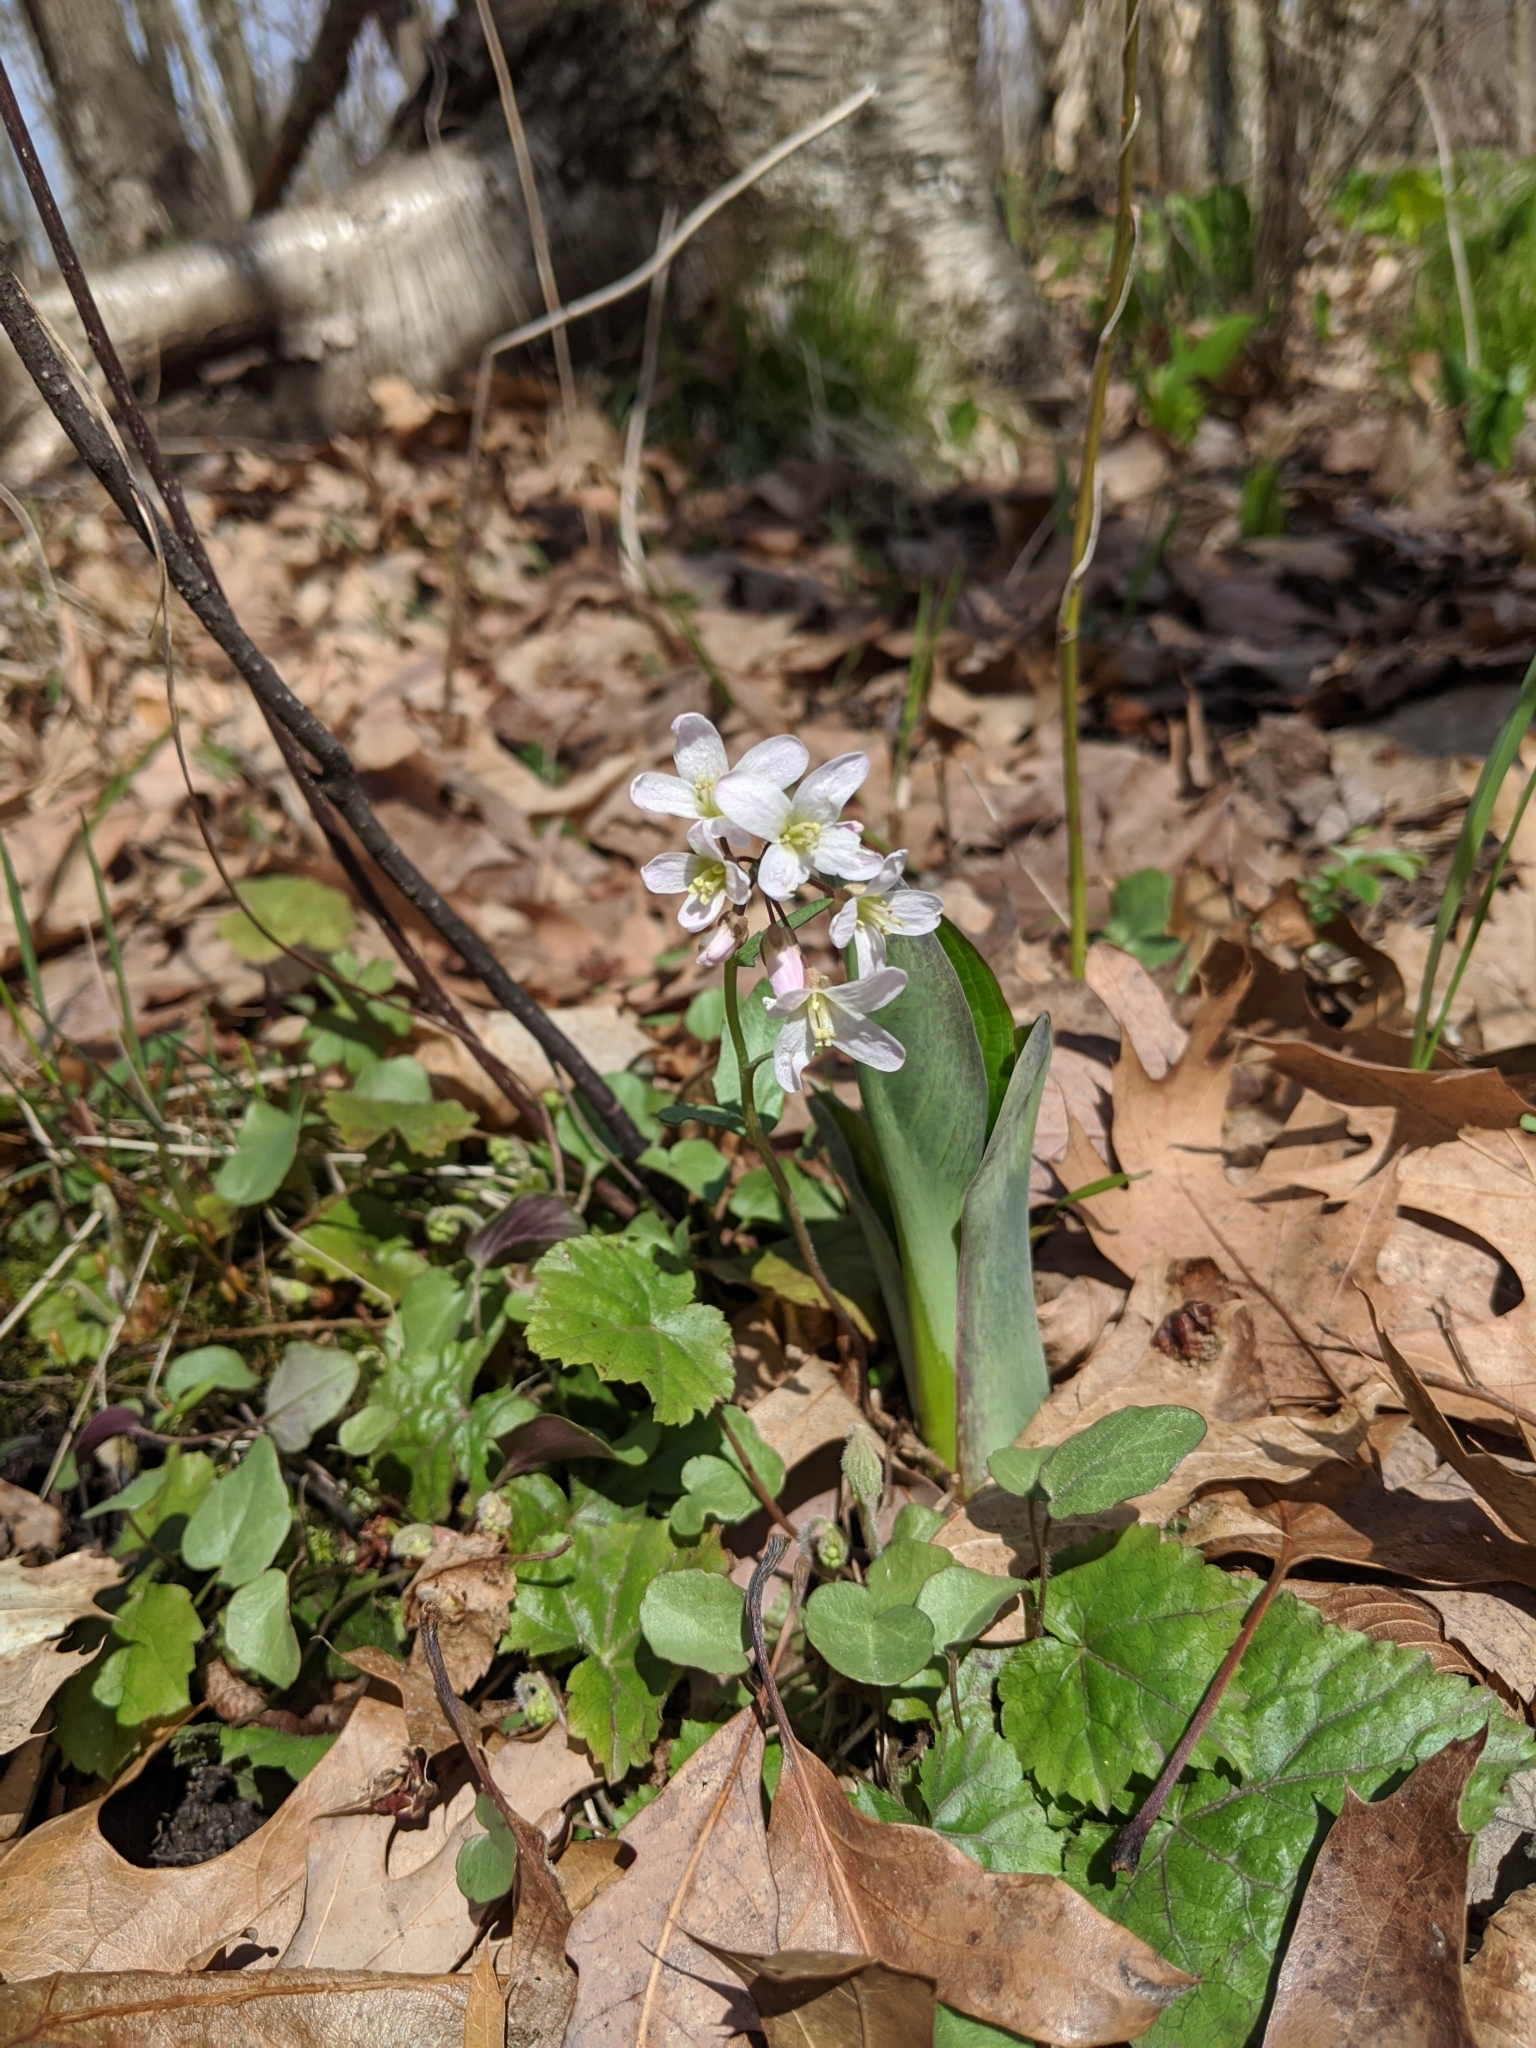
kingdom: Plantae
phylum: Tracheophyta
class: Magnoliopsida
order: Brassicales
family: Brassicaceae
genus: Cardamine
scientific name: Cardamine douglassii
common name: Purple cress
